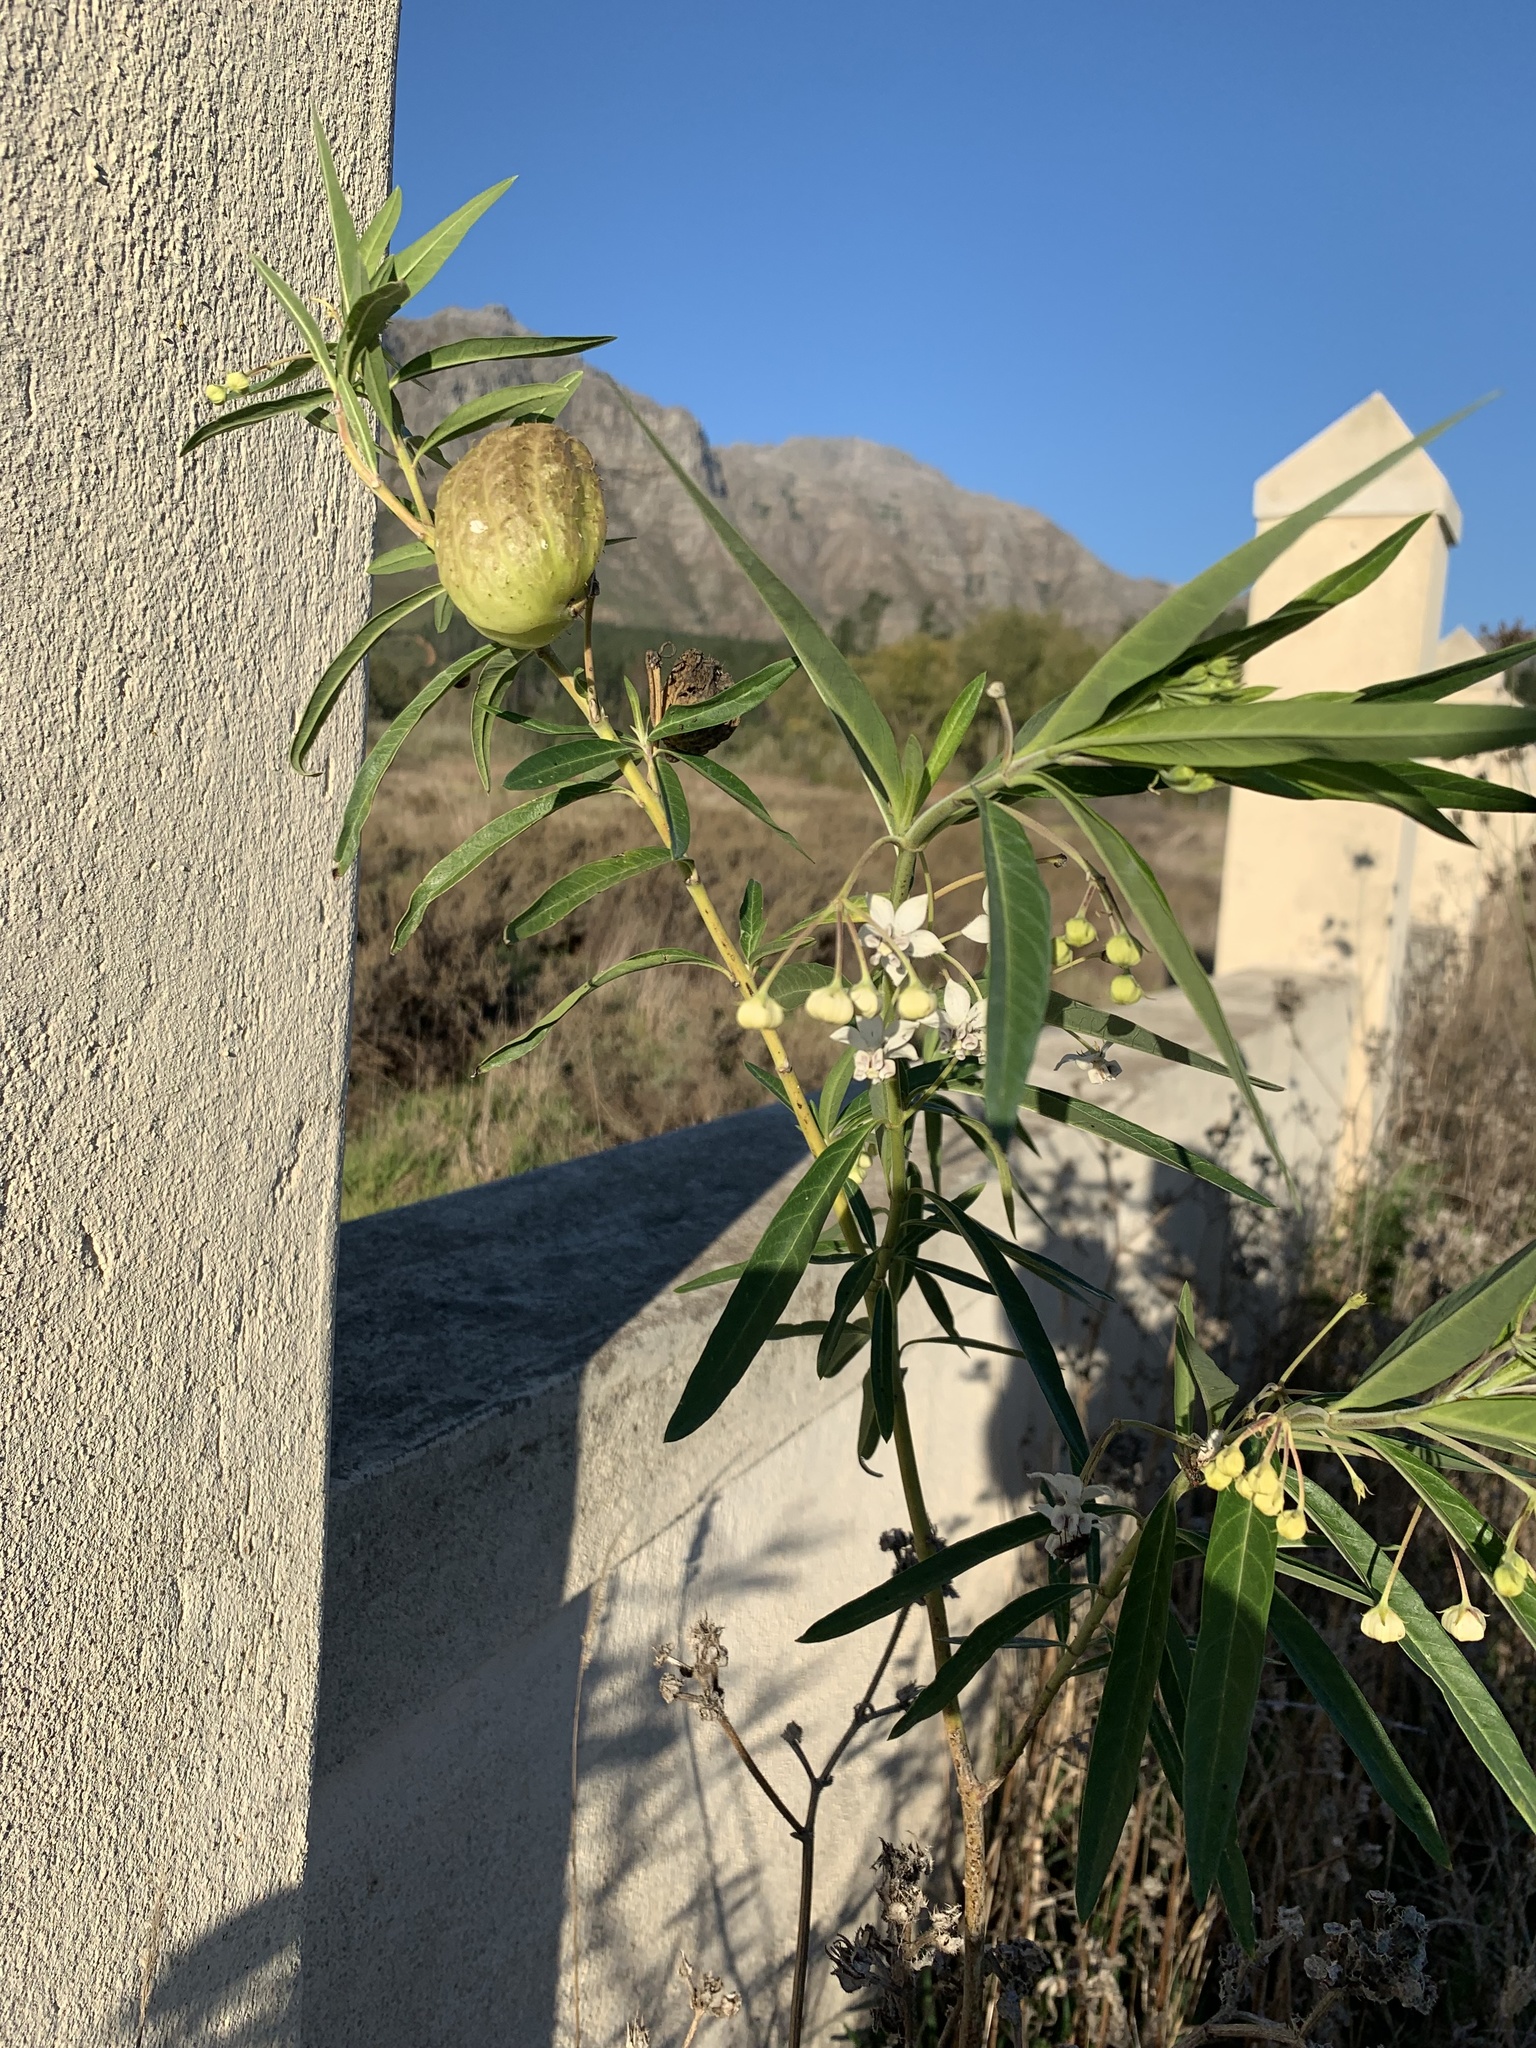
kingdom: Plantae
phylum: Tracheophyta
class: Magnoliopsida
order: Gentianales
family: Apocynaceae
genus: Gomphocarpus
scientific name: Gomphocarpus physocarpus
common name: Balloon cotton bush
